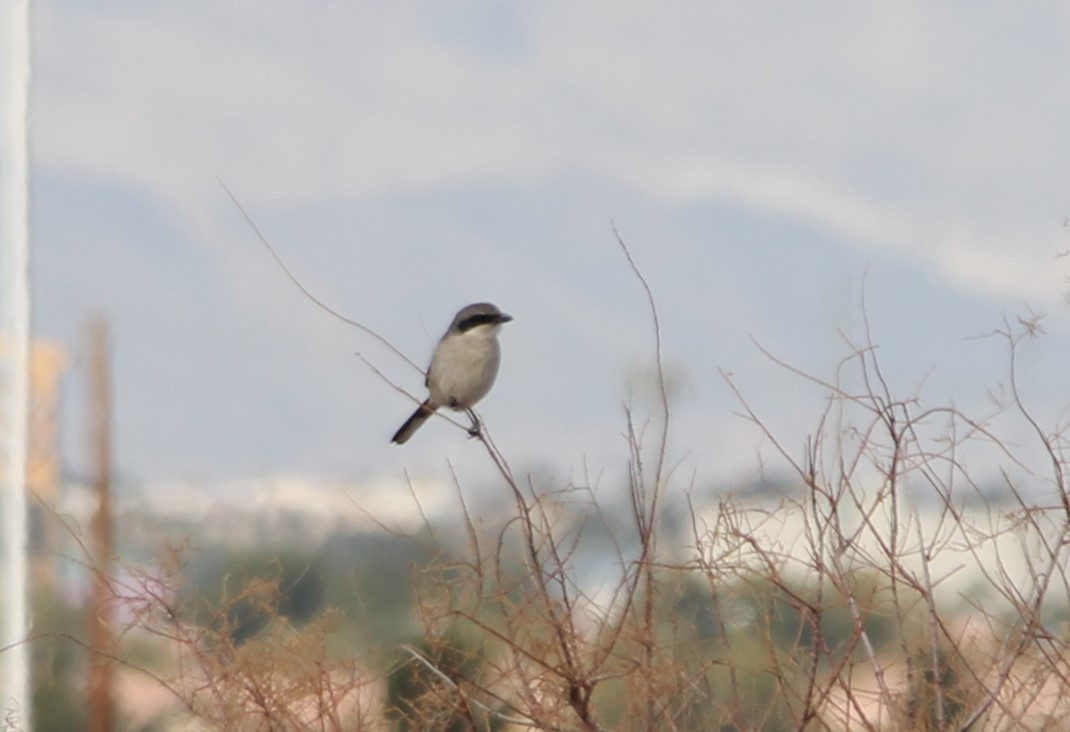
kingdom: Animalia
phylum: Chordata
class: Aves
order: Passeriformes
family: Laniidae
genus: Lanius
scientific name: Lanius ludovicianus
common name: Loggerhead shrike
